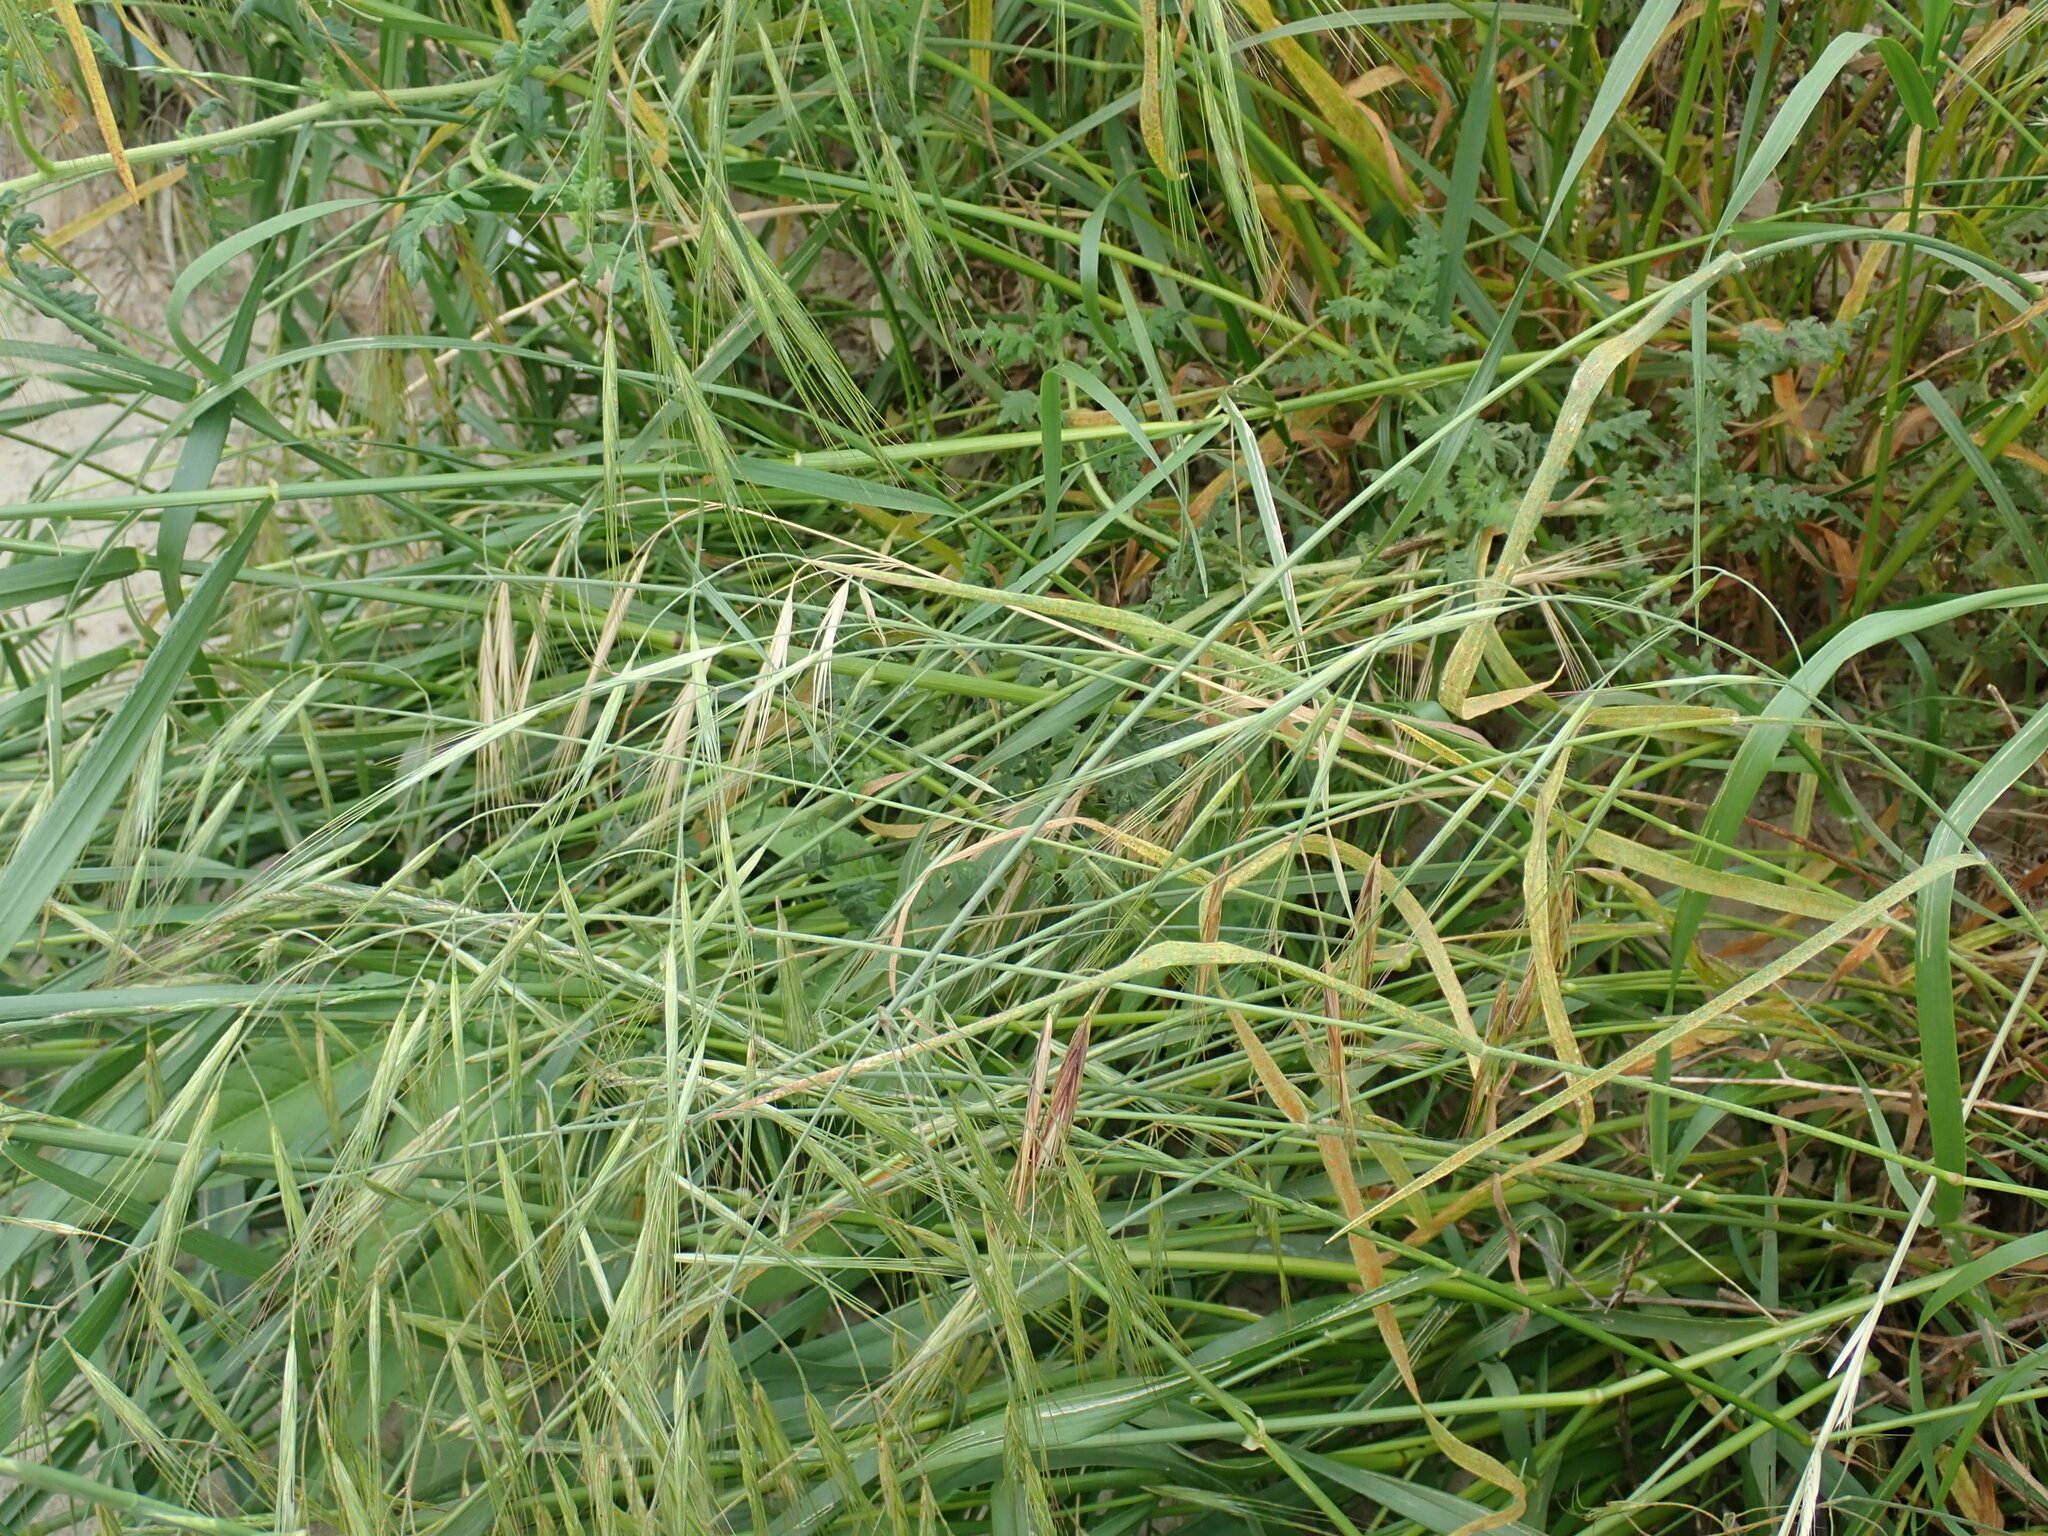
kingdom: Plantae
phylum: Tracheophyta
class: Liliopsida
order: Poales
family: Poaceae
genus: Bromus
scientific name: Bromus diandrus
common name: Ripgut brome
